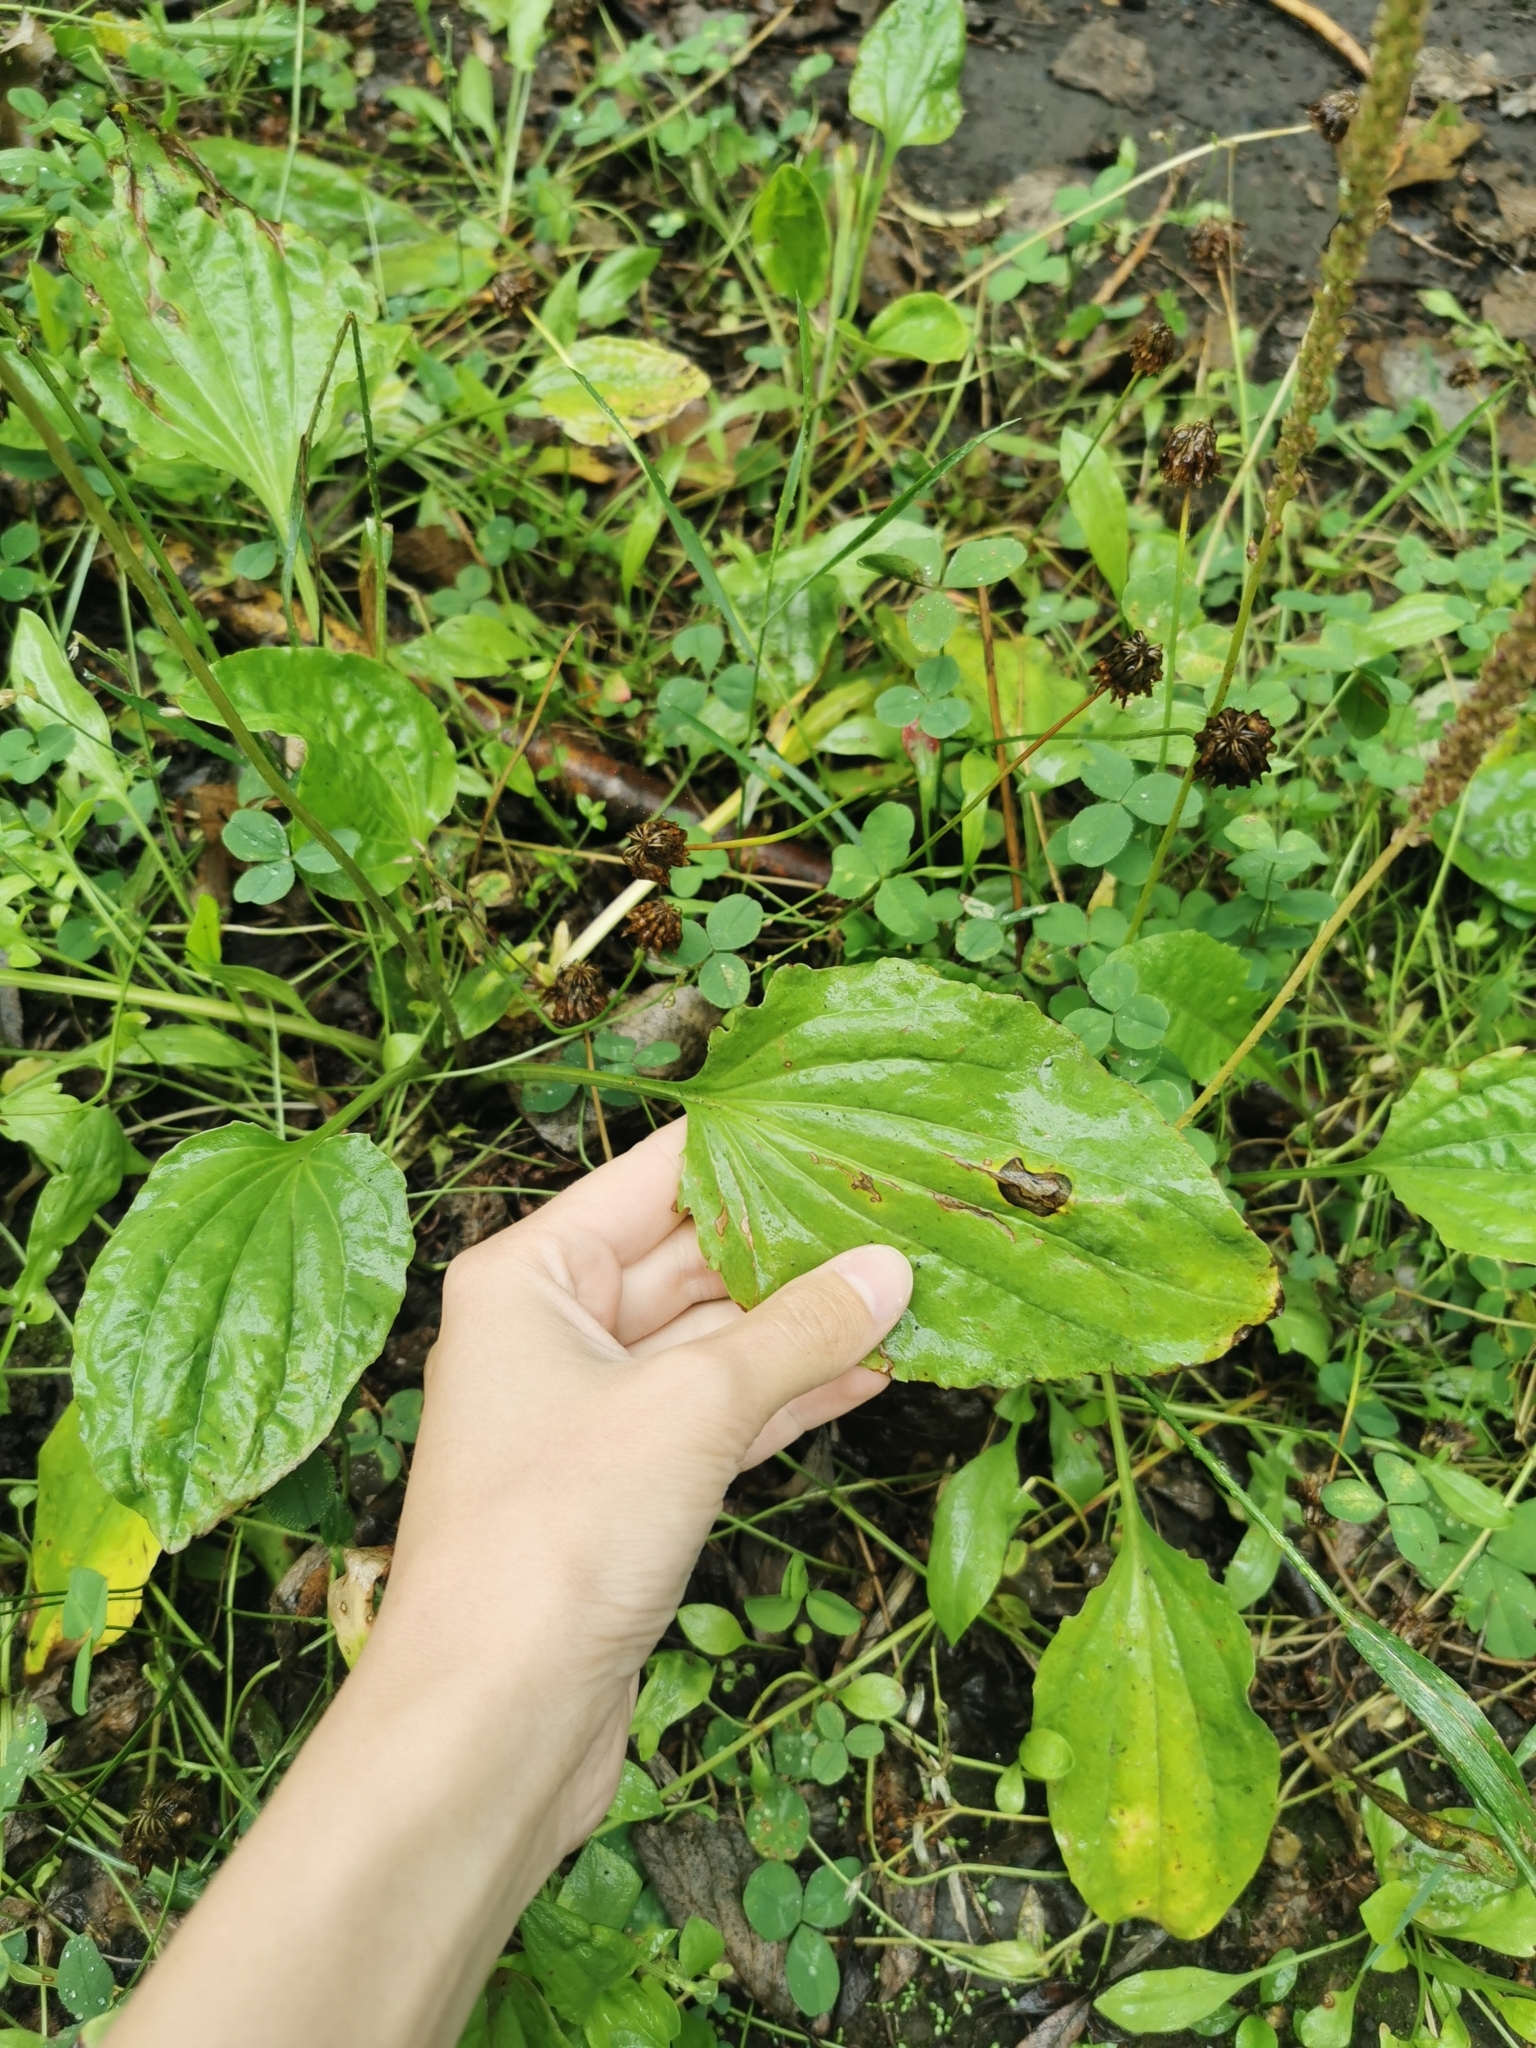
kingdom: Plantae
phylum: Tracheophyta
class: Magnoliopsida
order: Lamiales
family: Plantaginaceae
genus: Plantago
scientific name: Plantago major
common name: Common plantain
